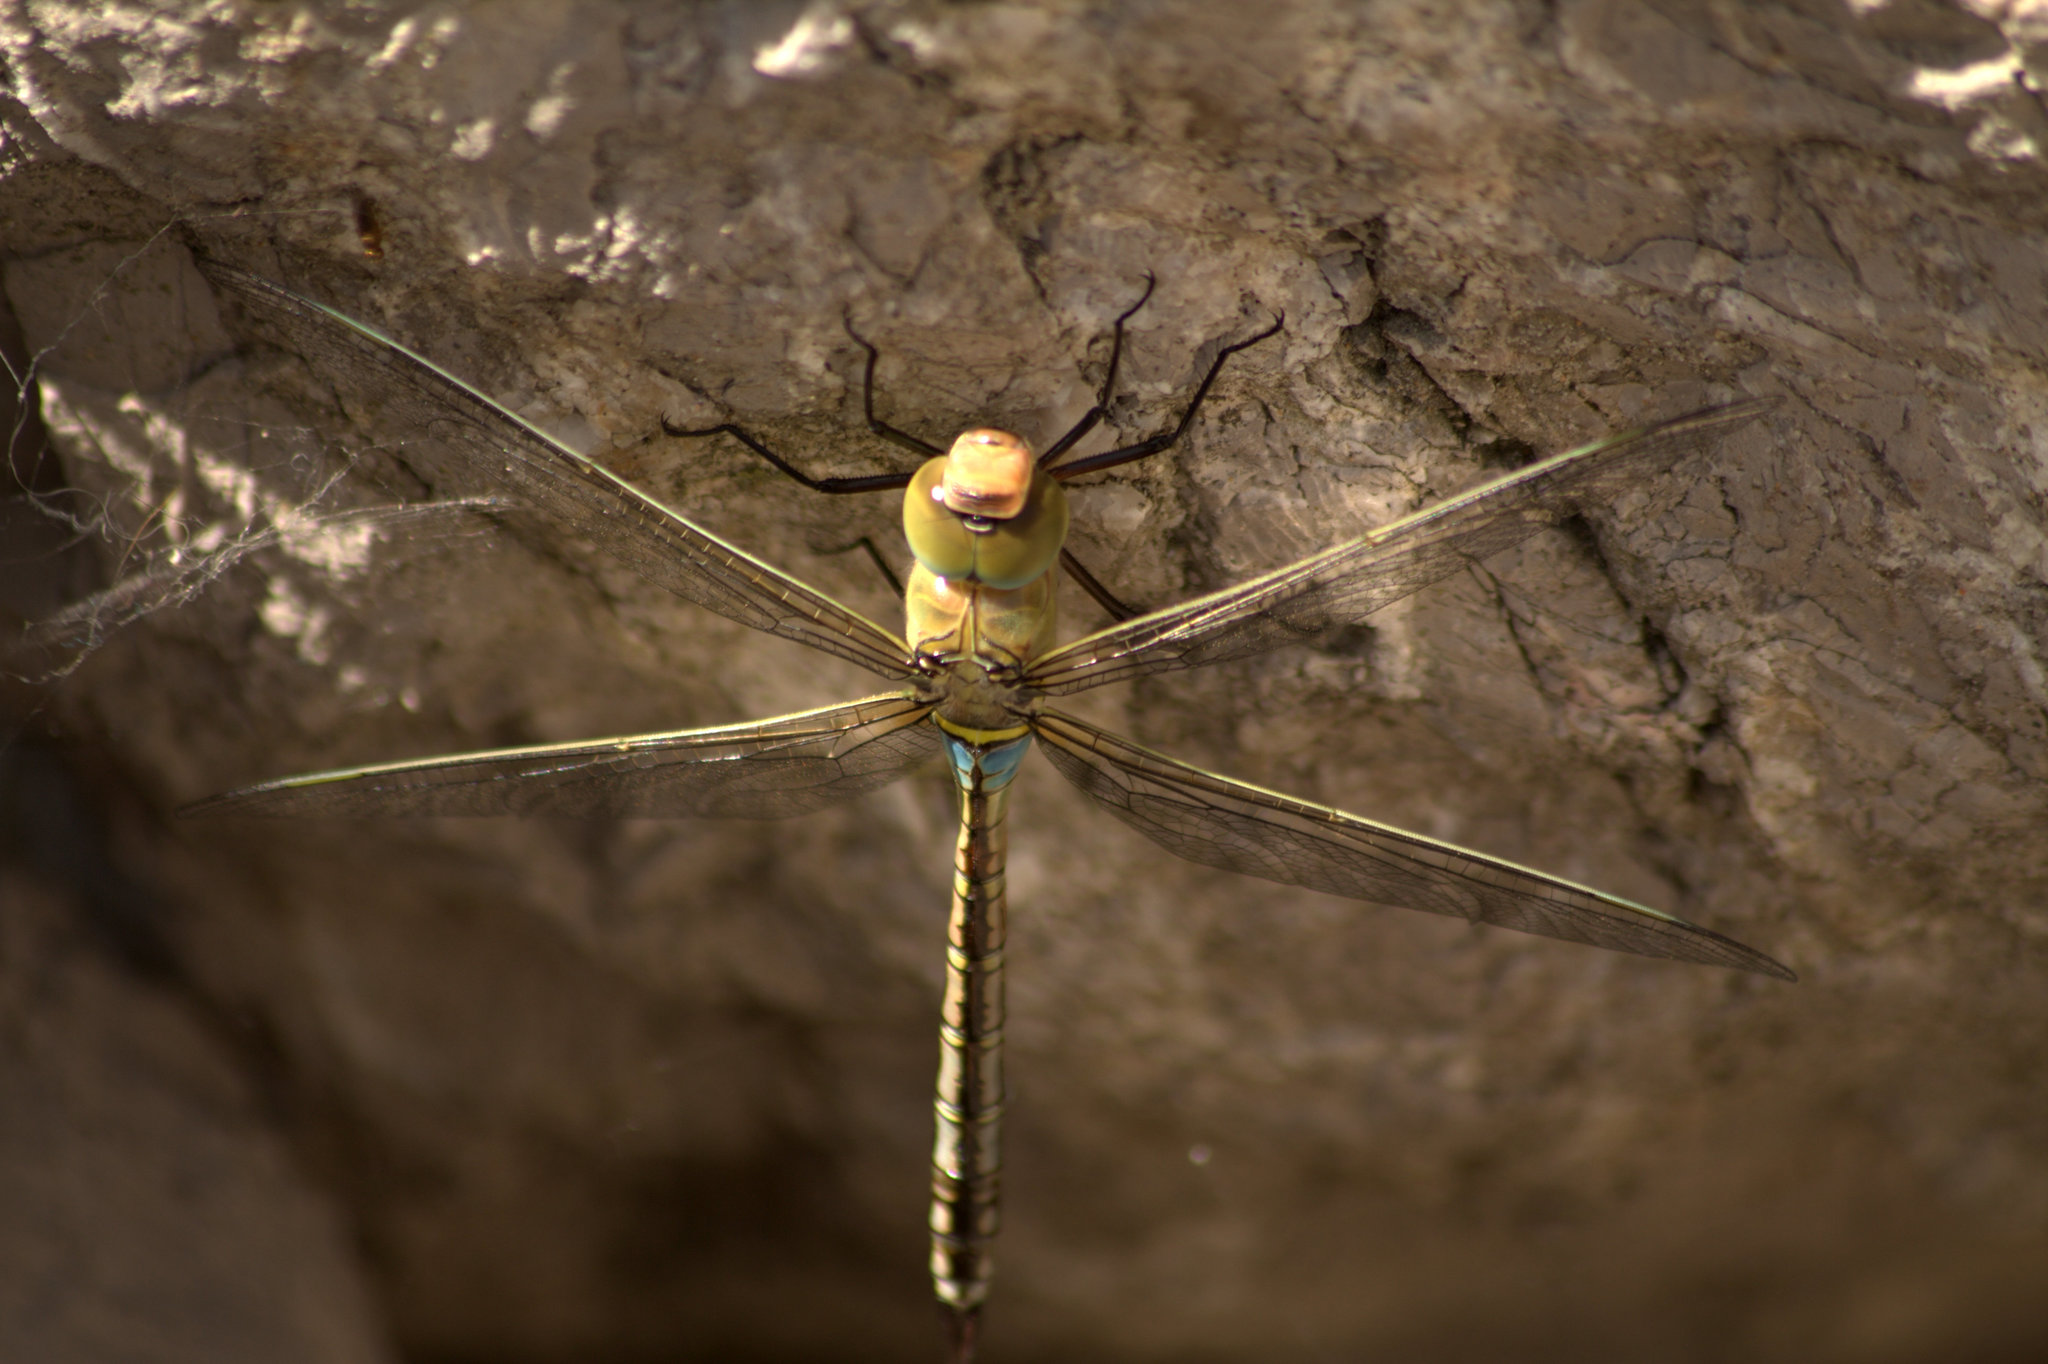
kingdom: Animalia
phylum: Arthropoda
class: Insecta
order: Odonata
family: Aeshnidae
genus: Anax
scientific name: Anax parthenope
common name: Lesser emperor
